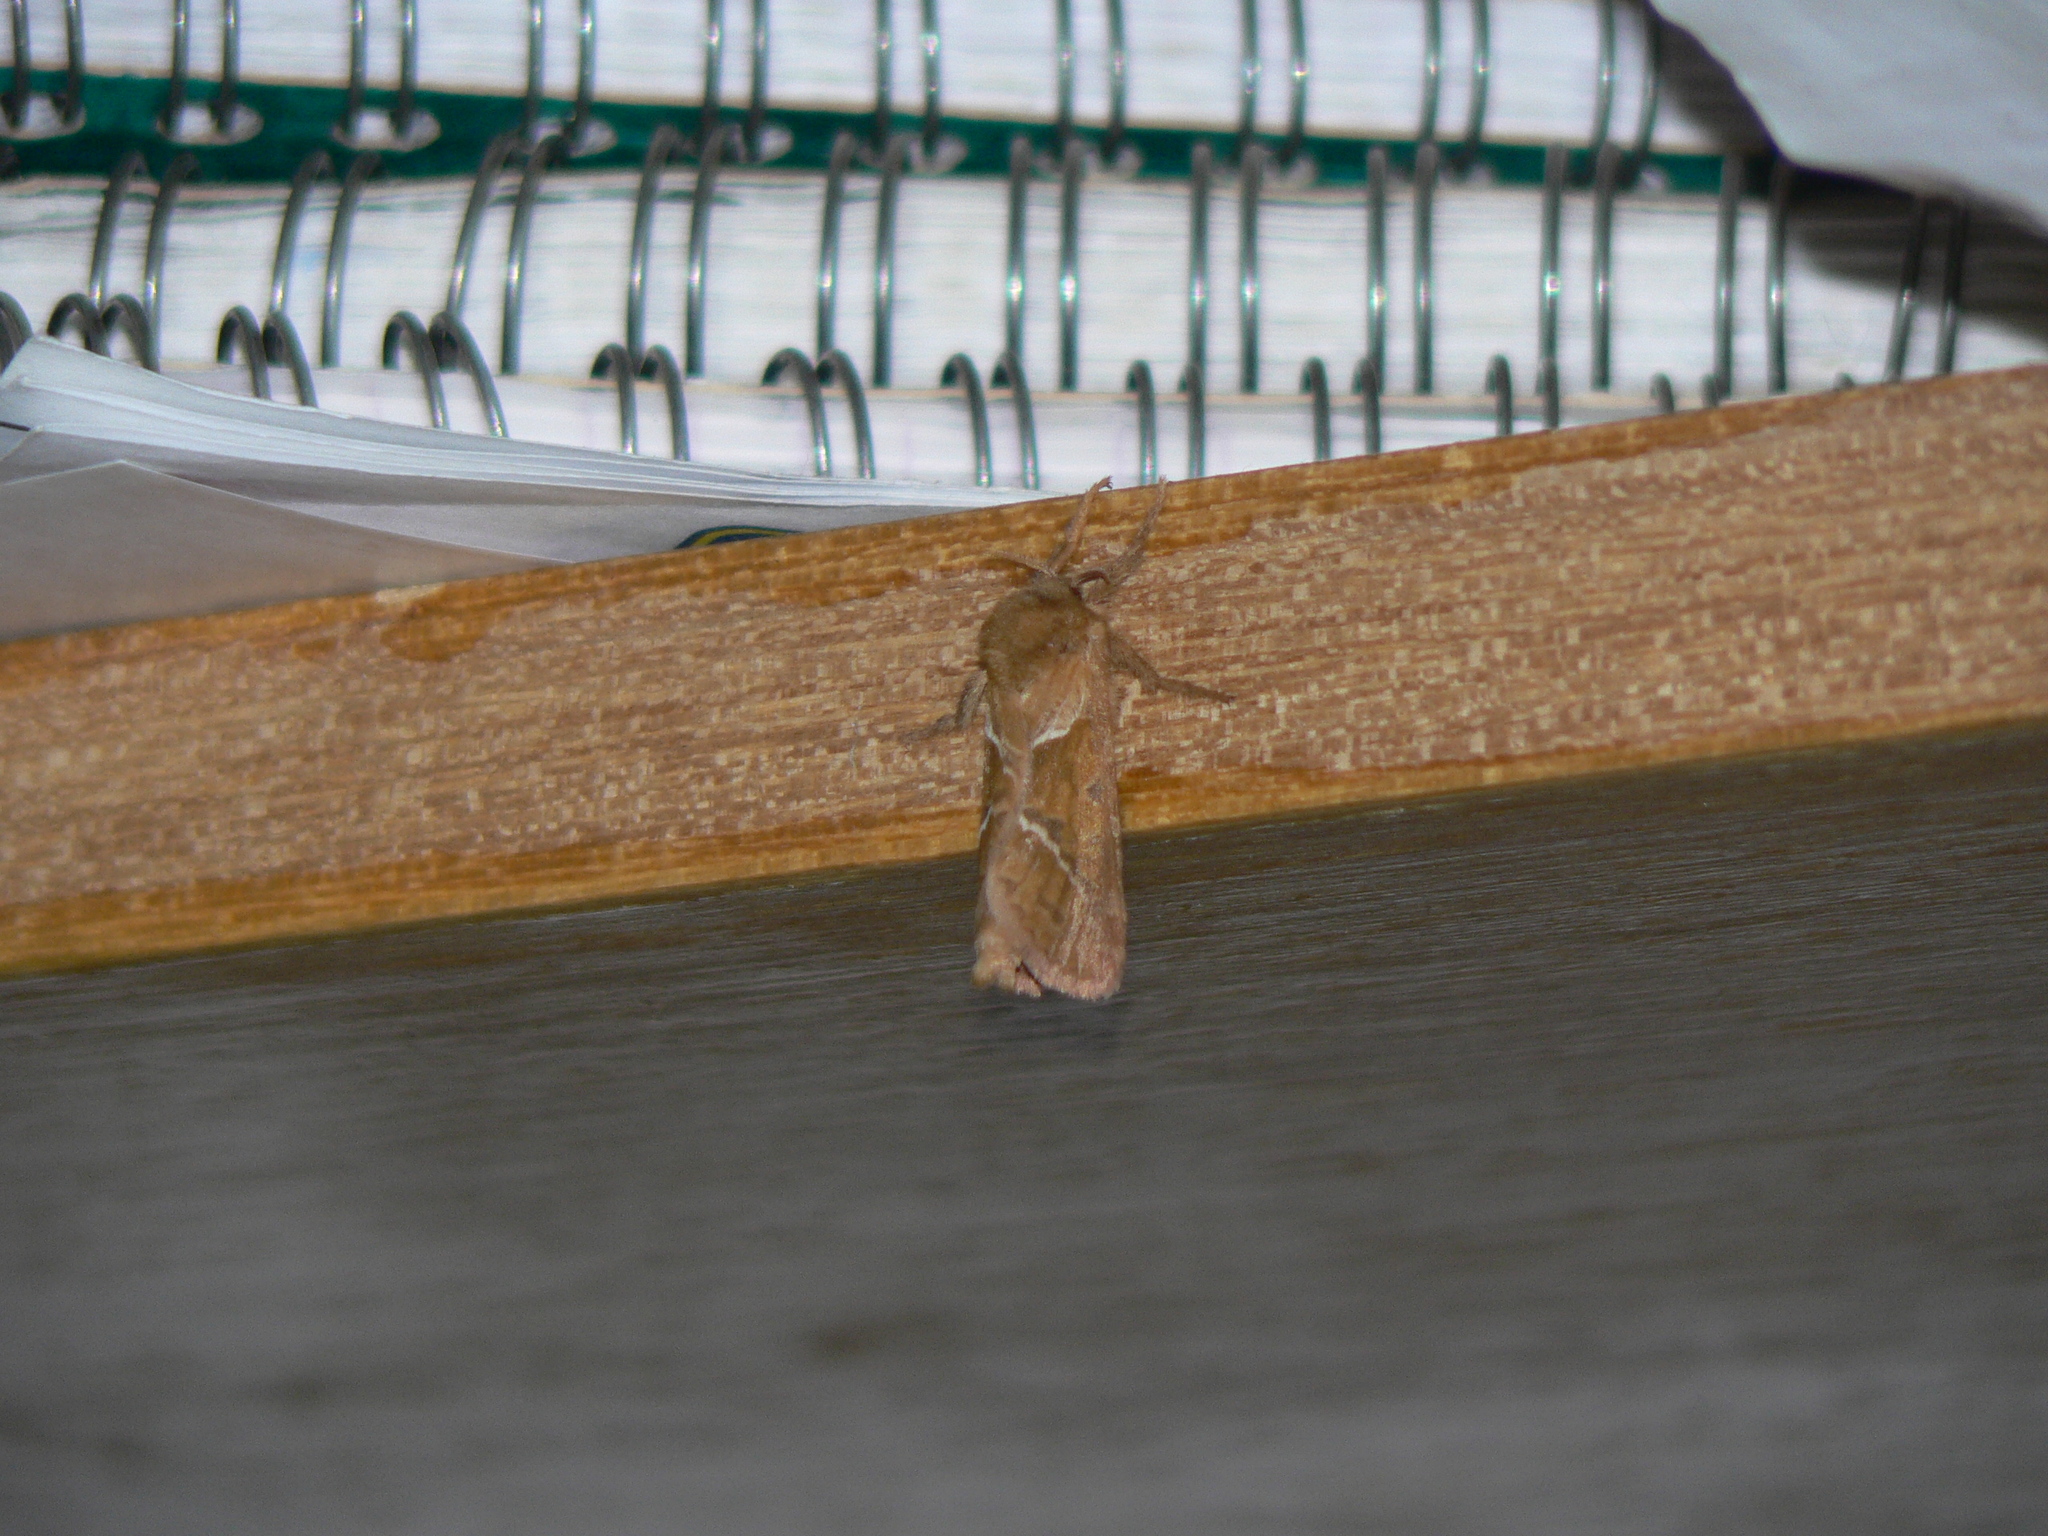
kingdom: Animalia
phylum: Arthropoda
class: Insecta
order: Lepidoptera
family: Hepialidae
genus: Triodia
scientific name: Triodia sylvina
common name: Orange swift
